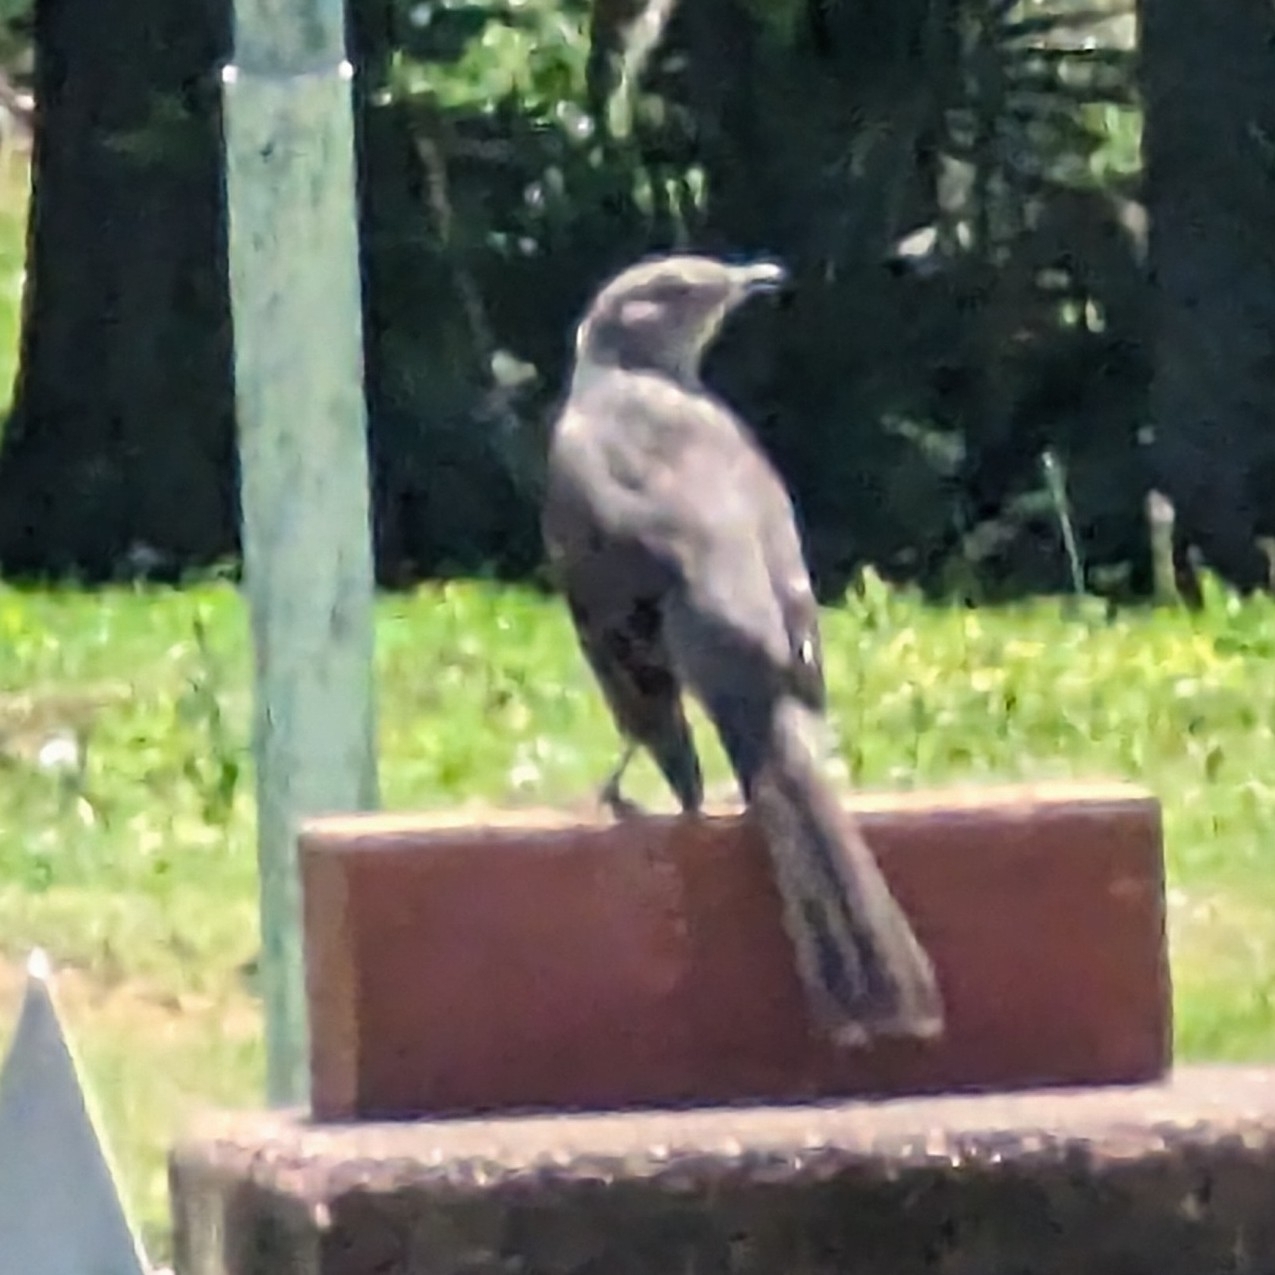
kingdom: Animalia
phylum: Chordata
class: Aves
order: Passeriformes
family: Mimidae
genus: Mimus
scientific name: Mimus polyglottos
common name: Northern mockingbird
